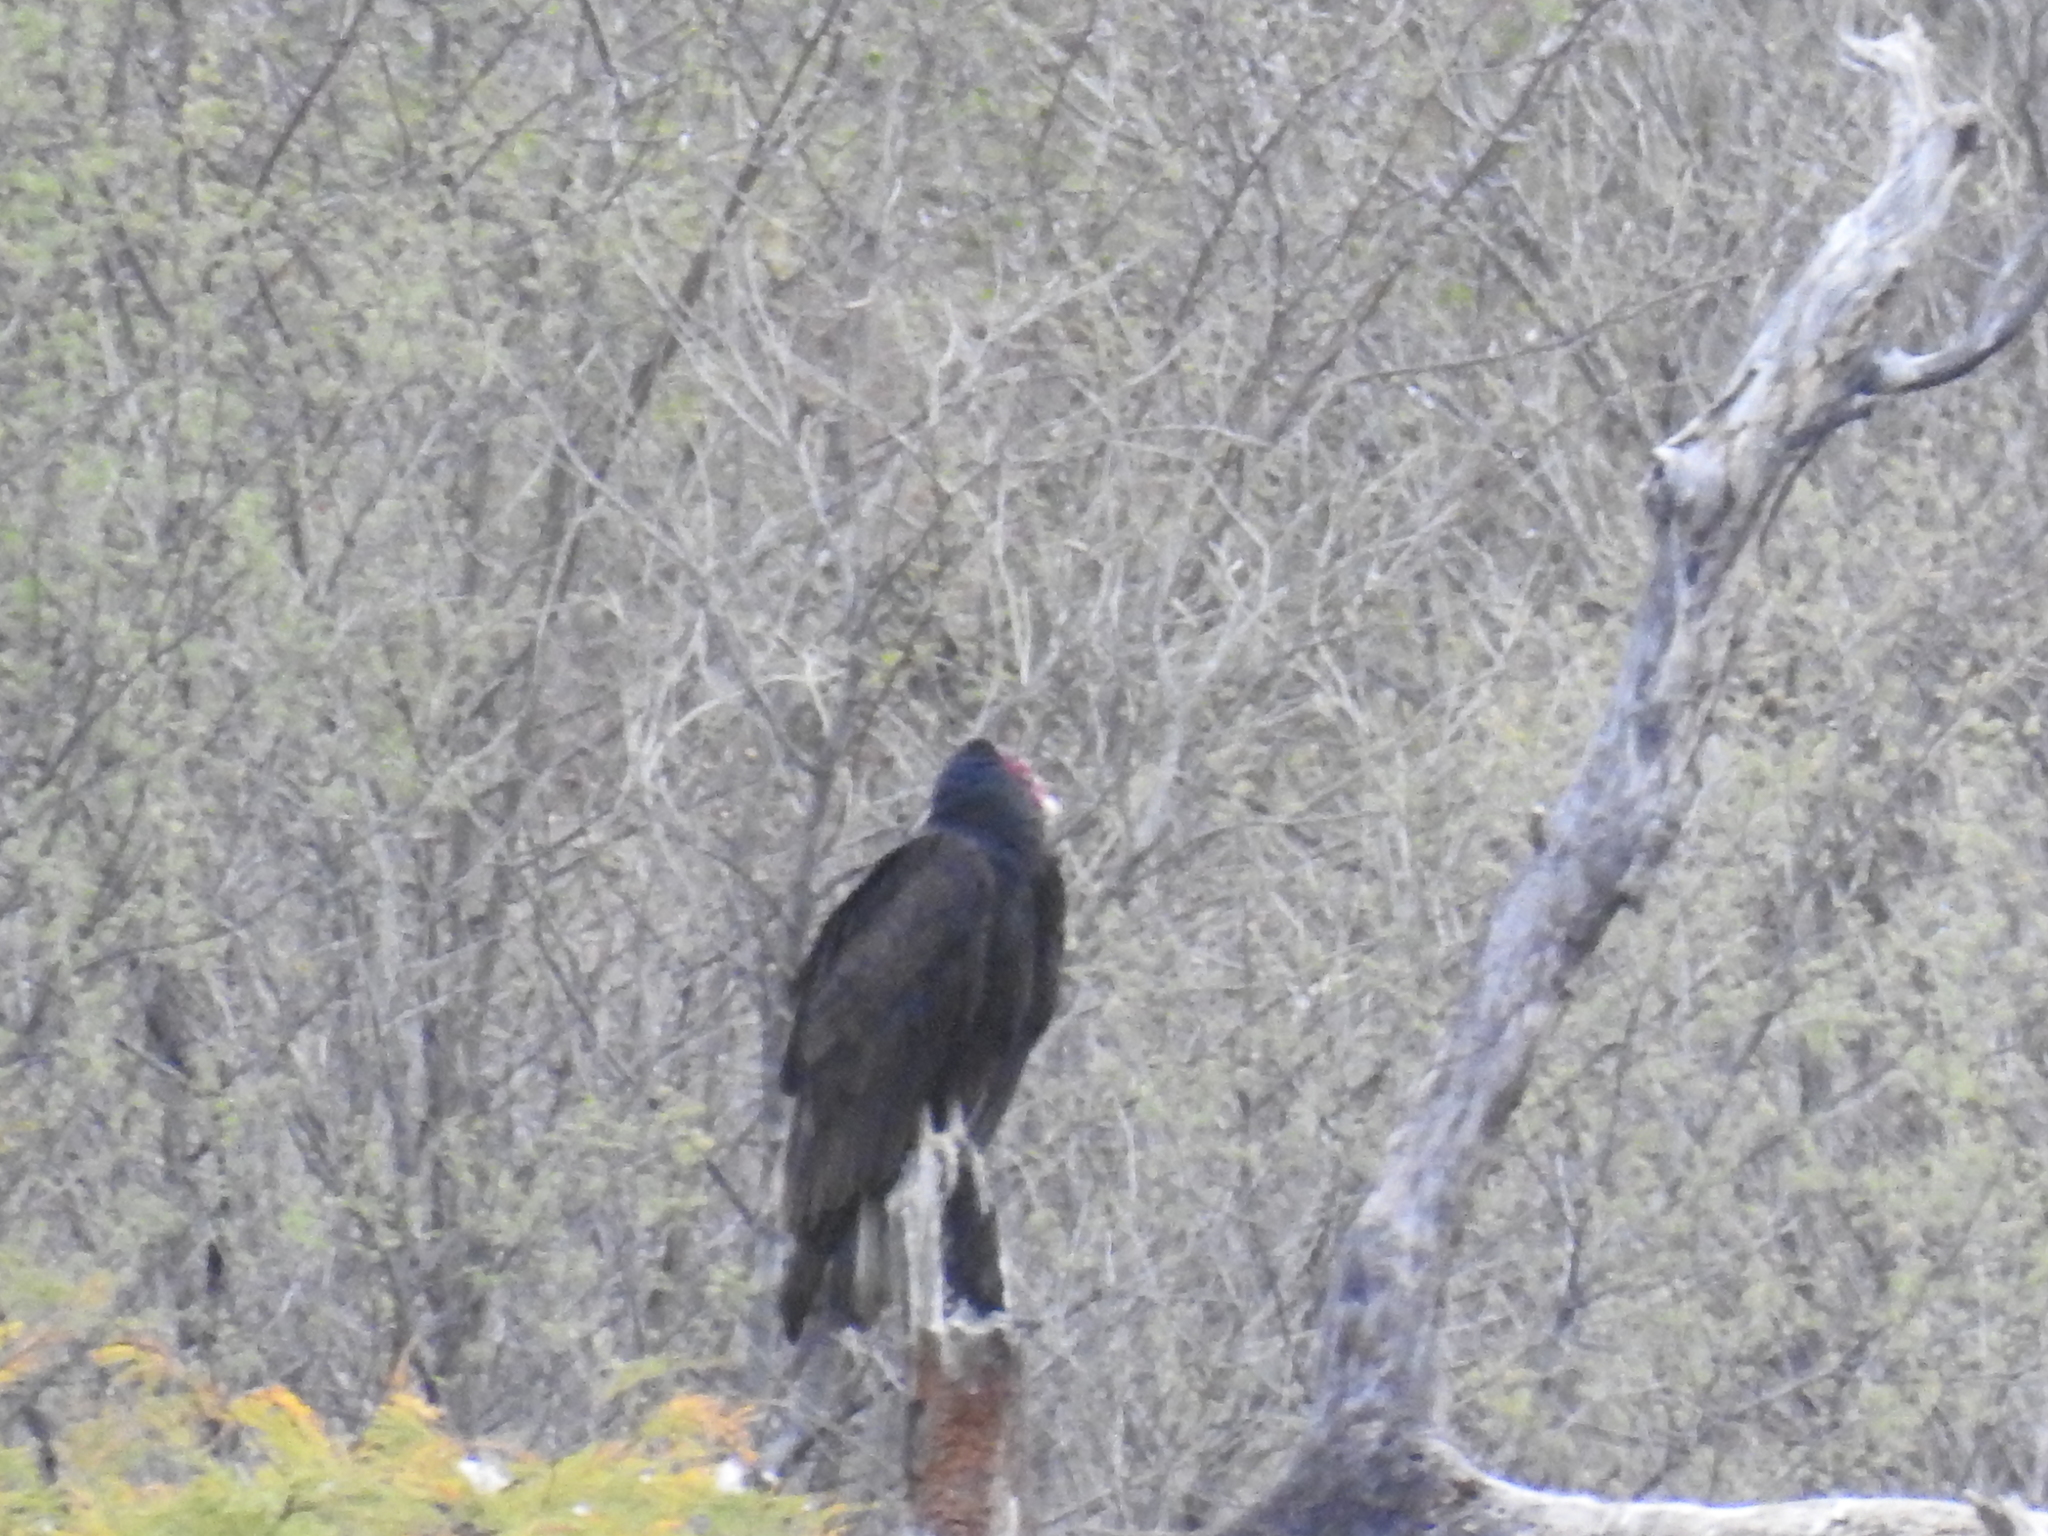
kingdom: Animalia
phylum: Chordata
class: Aves
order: Accipitriformes
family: Cathartidae
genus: Cathartes
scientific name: Cathartes aura
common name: Turkey vulture
